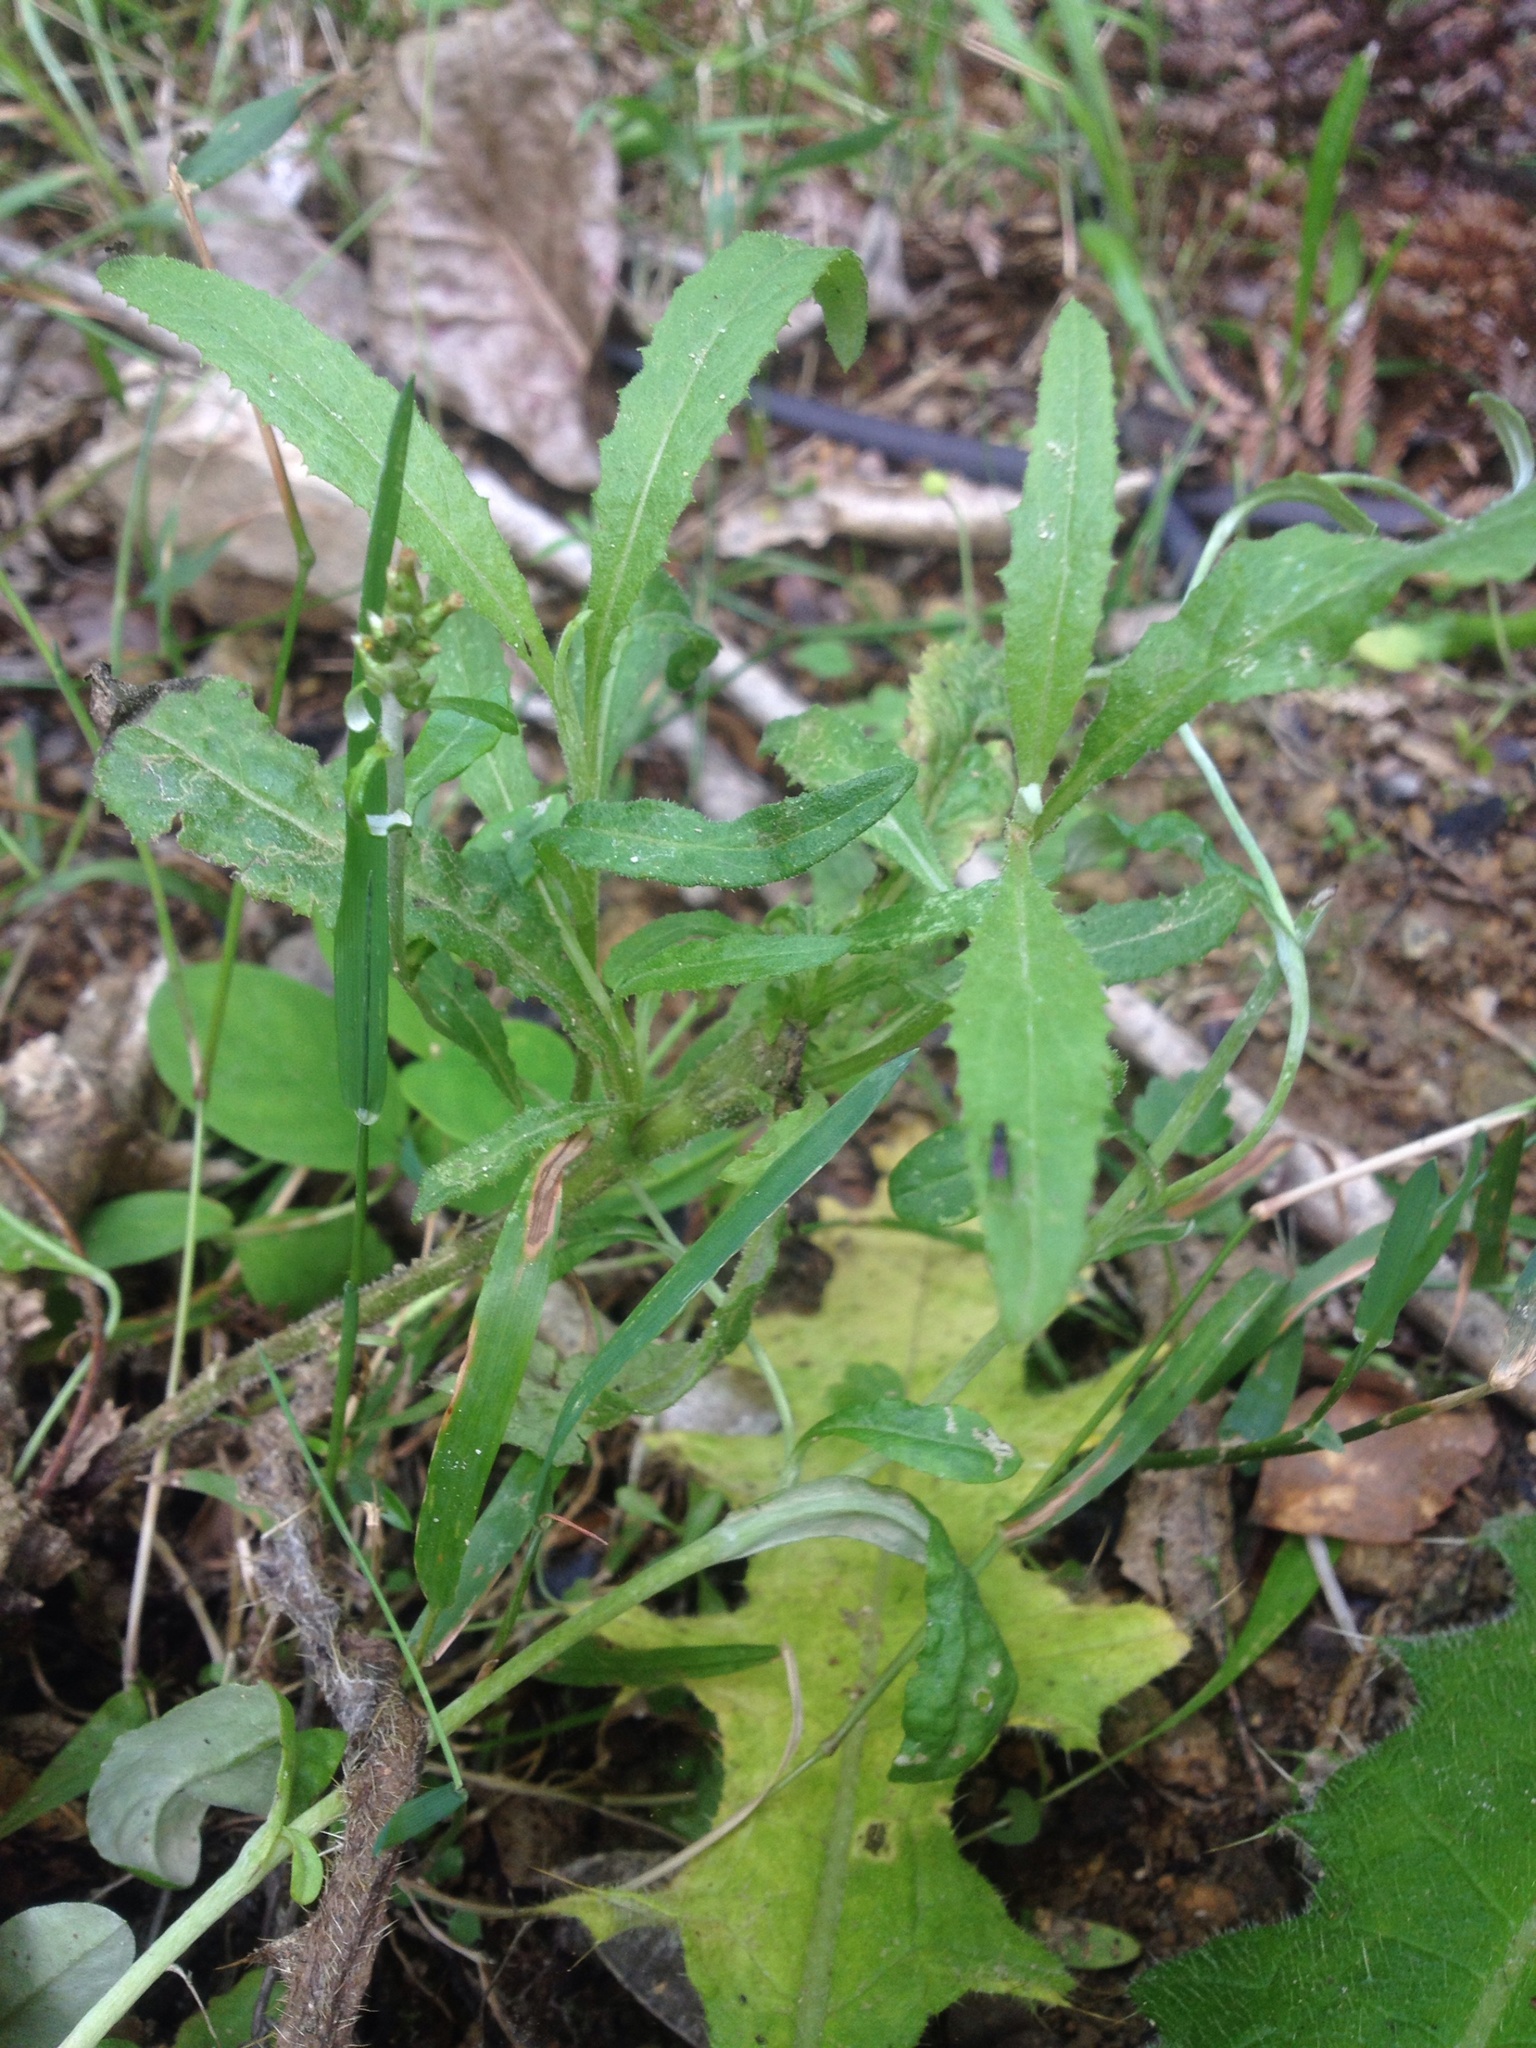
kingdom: Plantae
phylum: Tracheophyta
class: Magnoliopsida
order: Asterales
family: Asteraceae
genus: Senecio
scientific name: Senecio minimus
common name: Toothed fireweed
